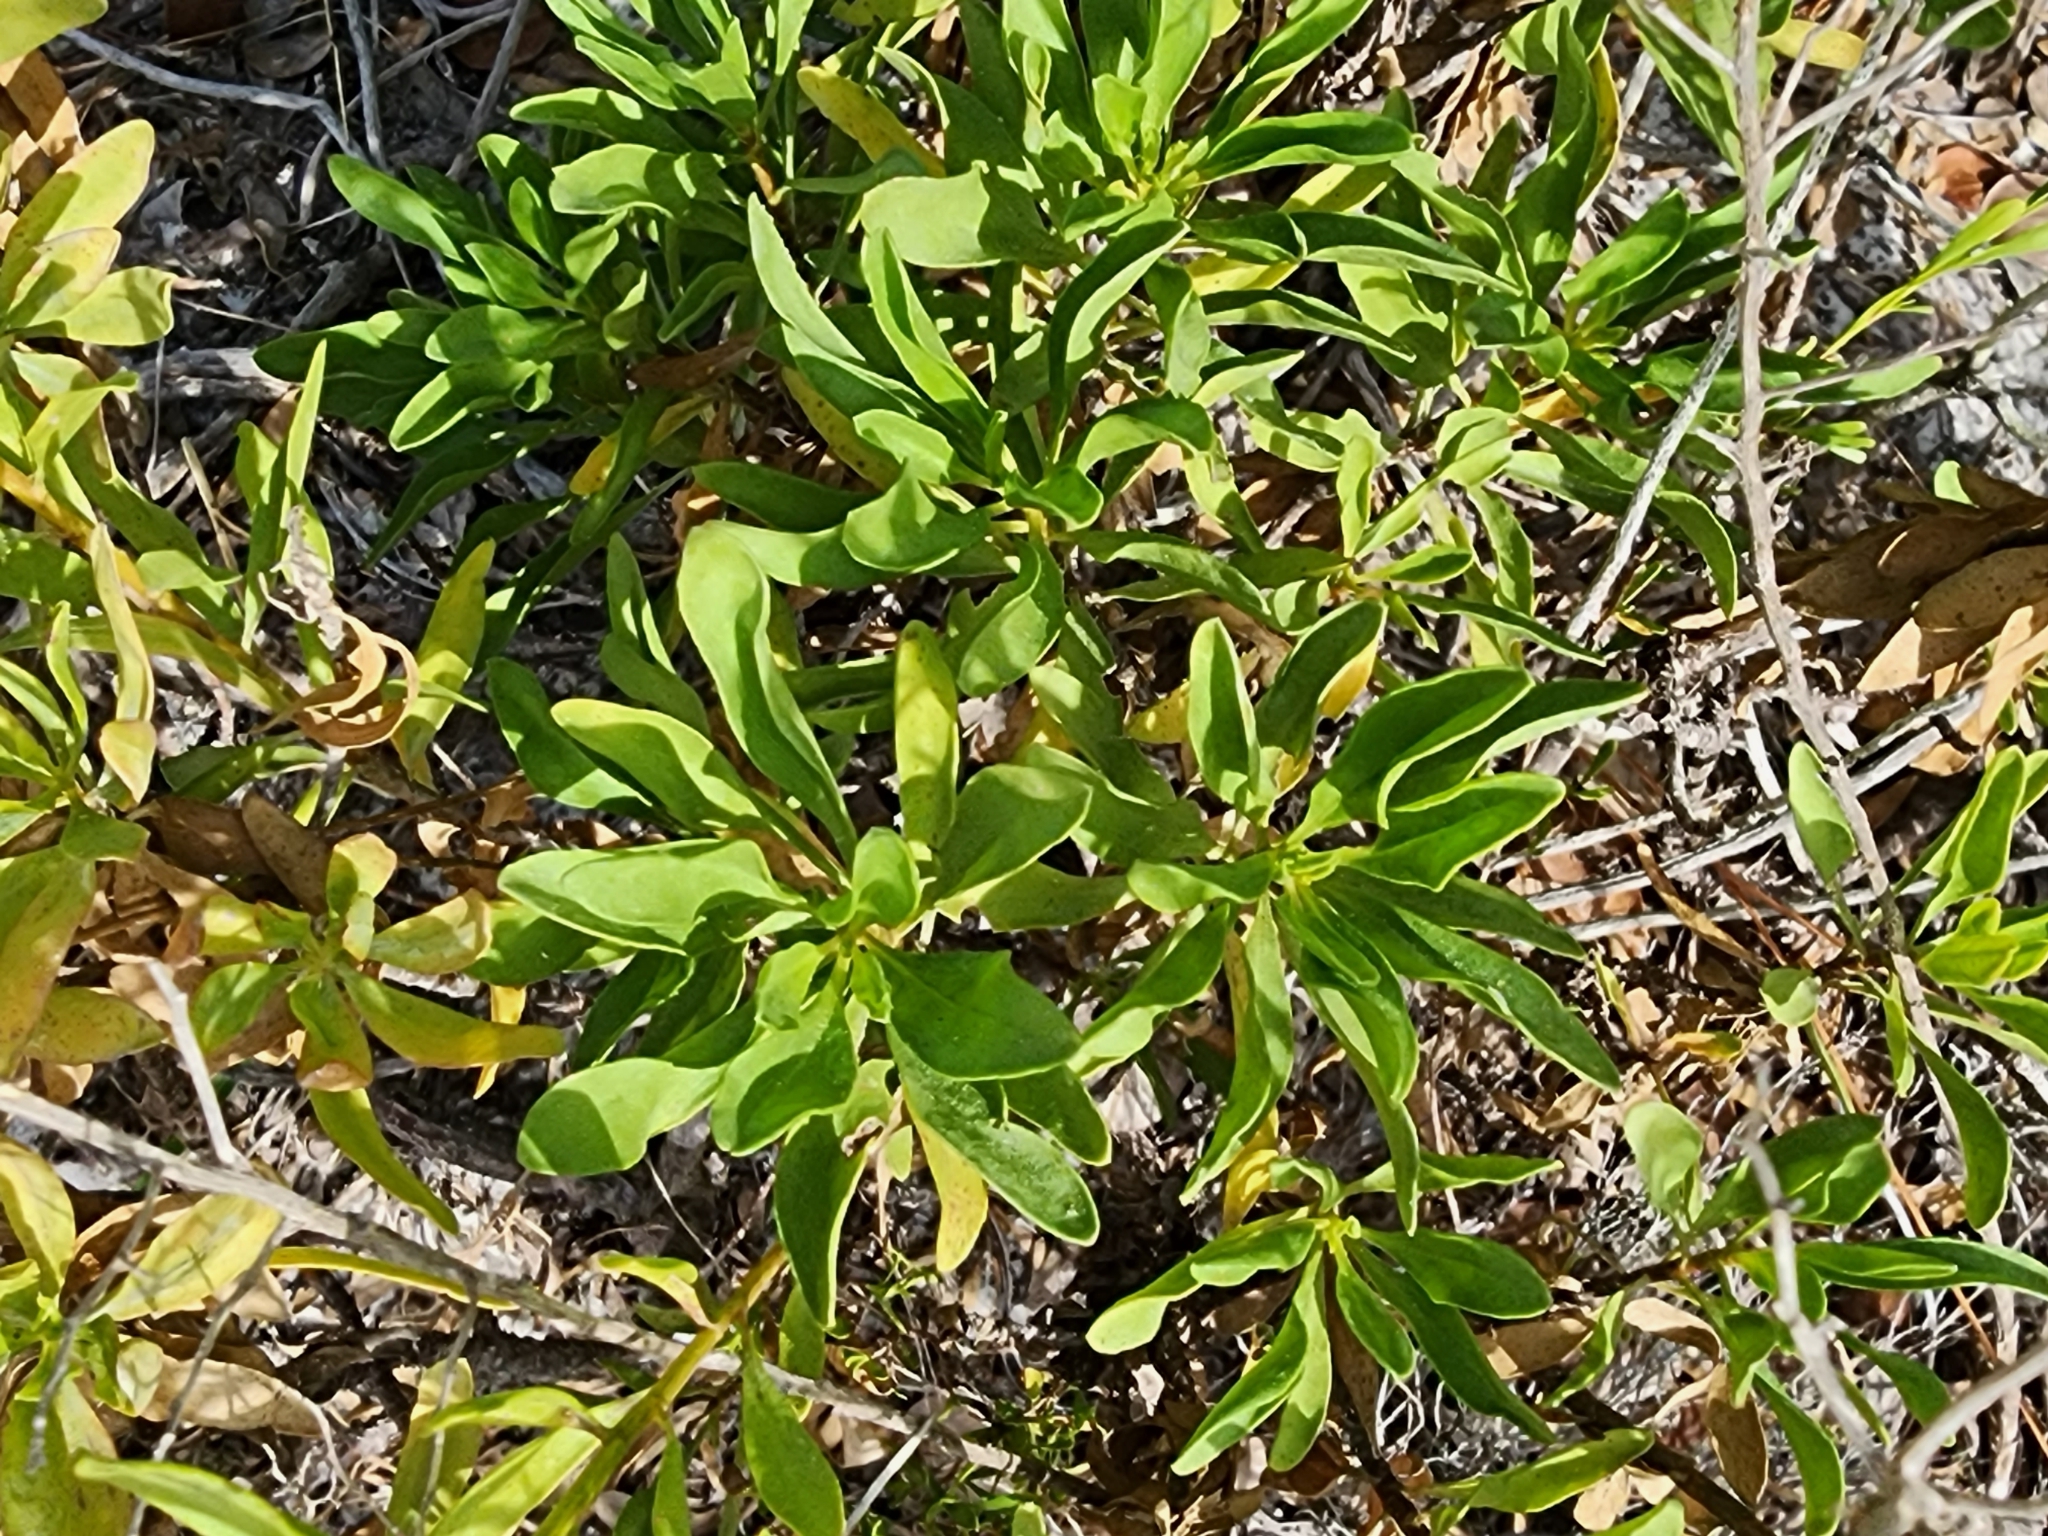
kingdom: Plantae
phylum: Tracheophyta
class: Magnoliopsida
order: Asterales
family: Asteraceae
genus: Chrysoma
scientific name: Chrysoma pauciflosculosa
